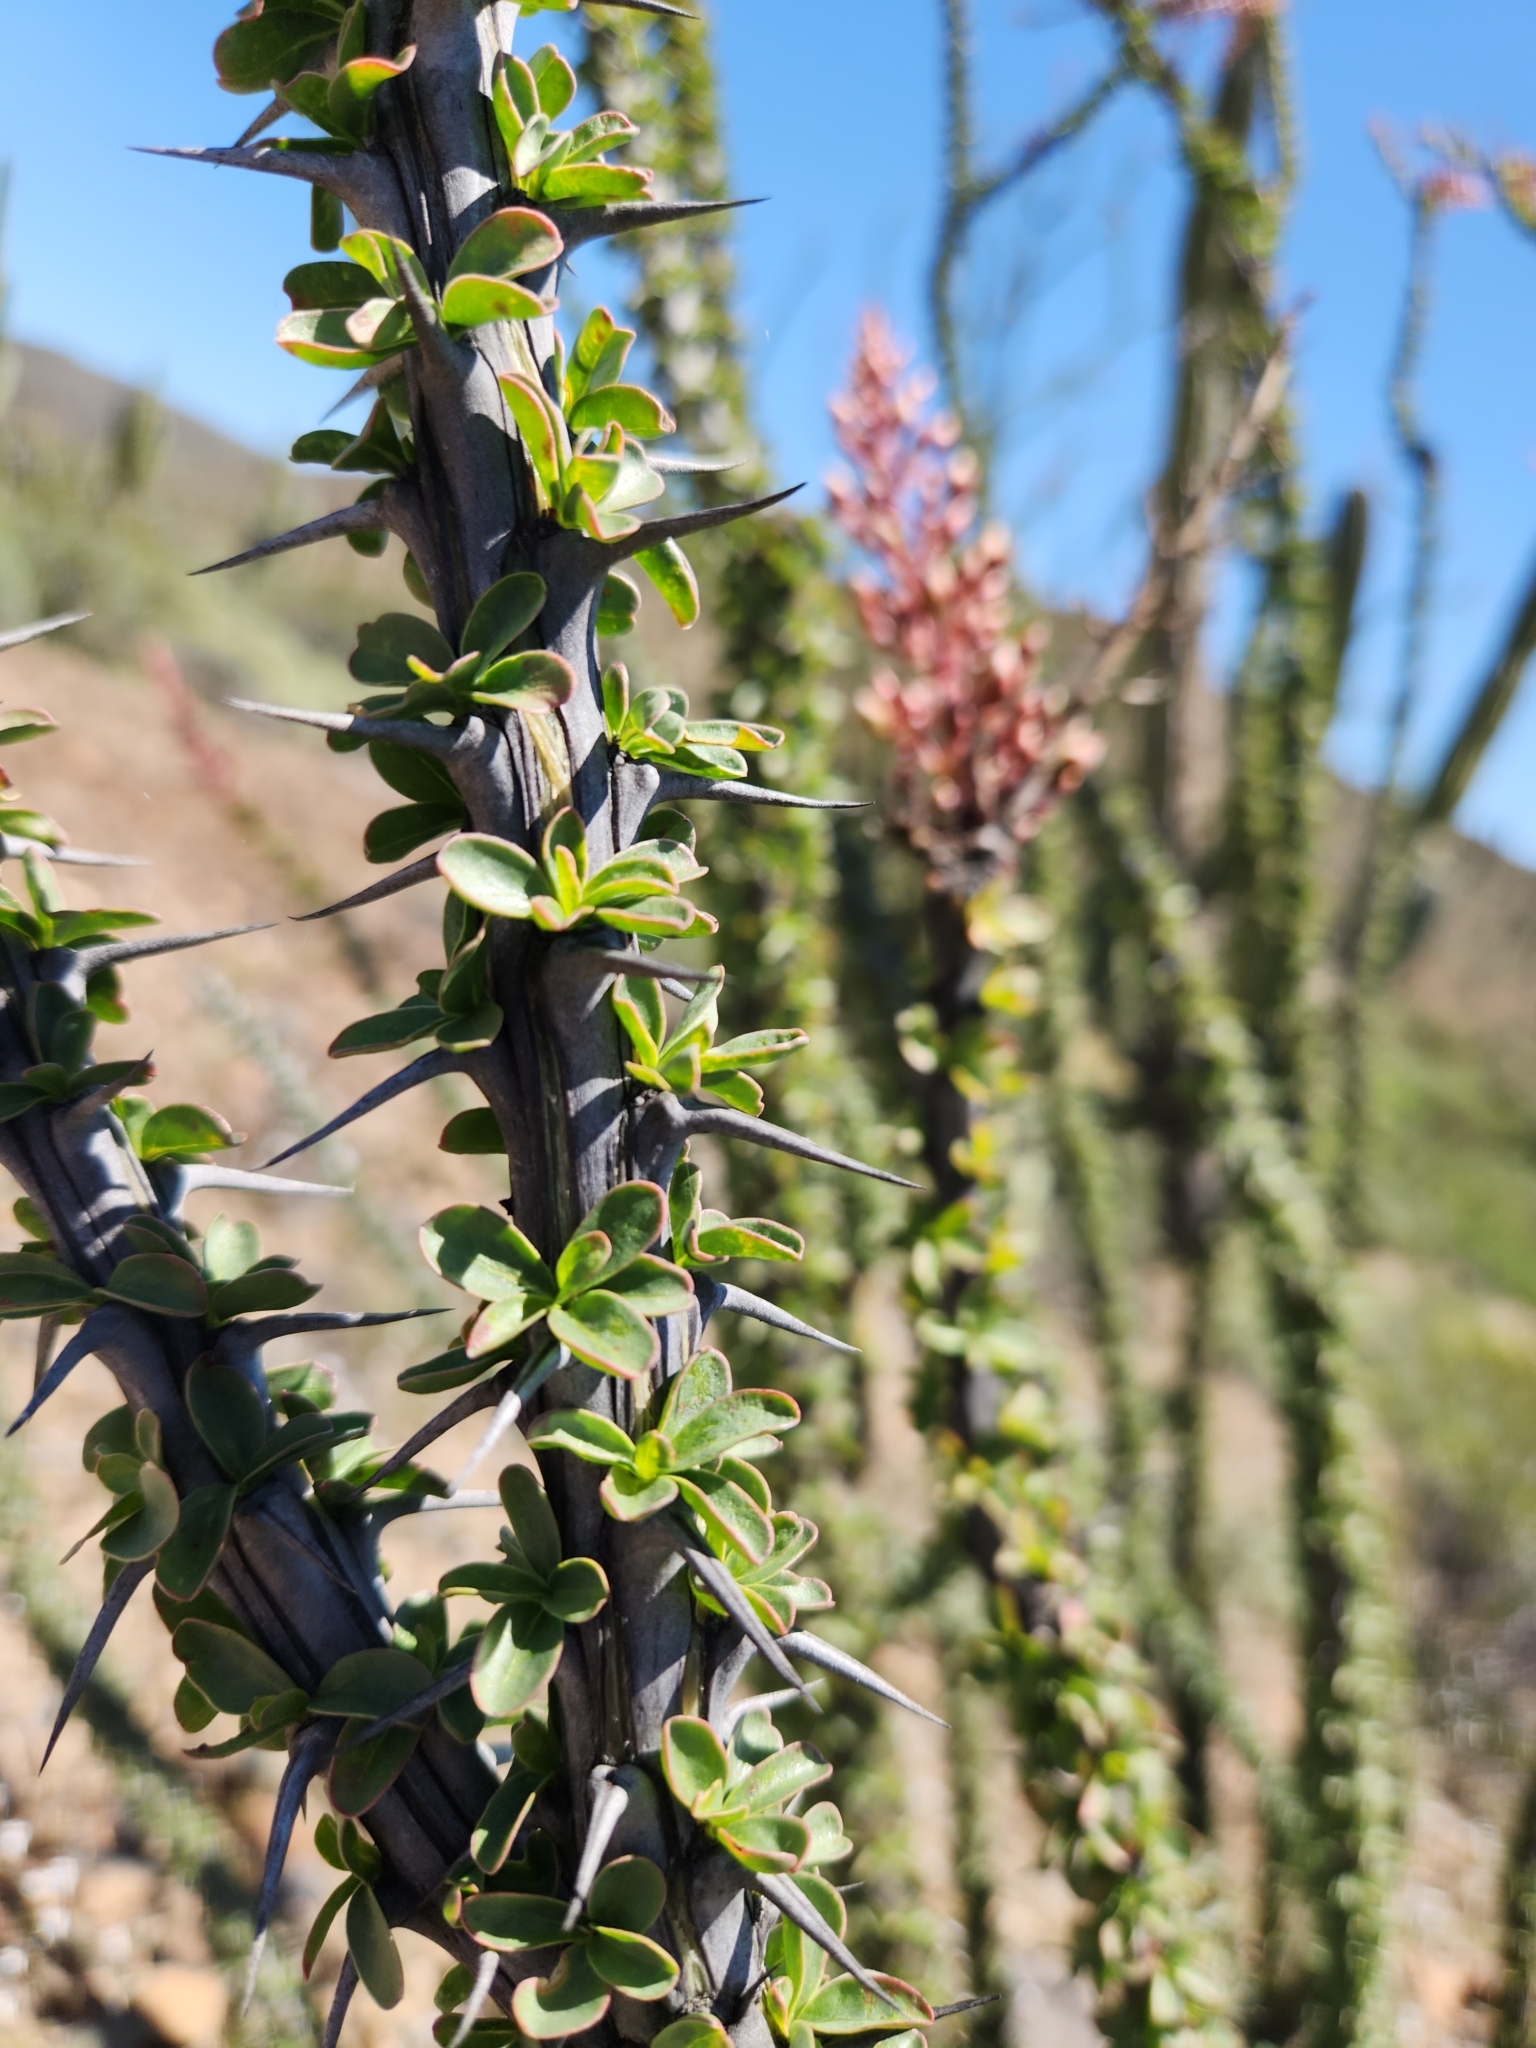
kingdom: Plantae
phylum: Tracheophyta
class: Magnoliopsida
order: Ericales
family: Fouquieriaceae
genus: Fouquieria
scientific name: Fouquieria splendens
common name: Vine-cactus
